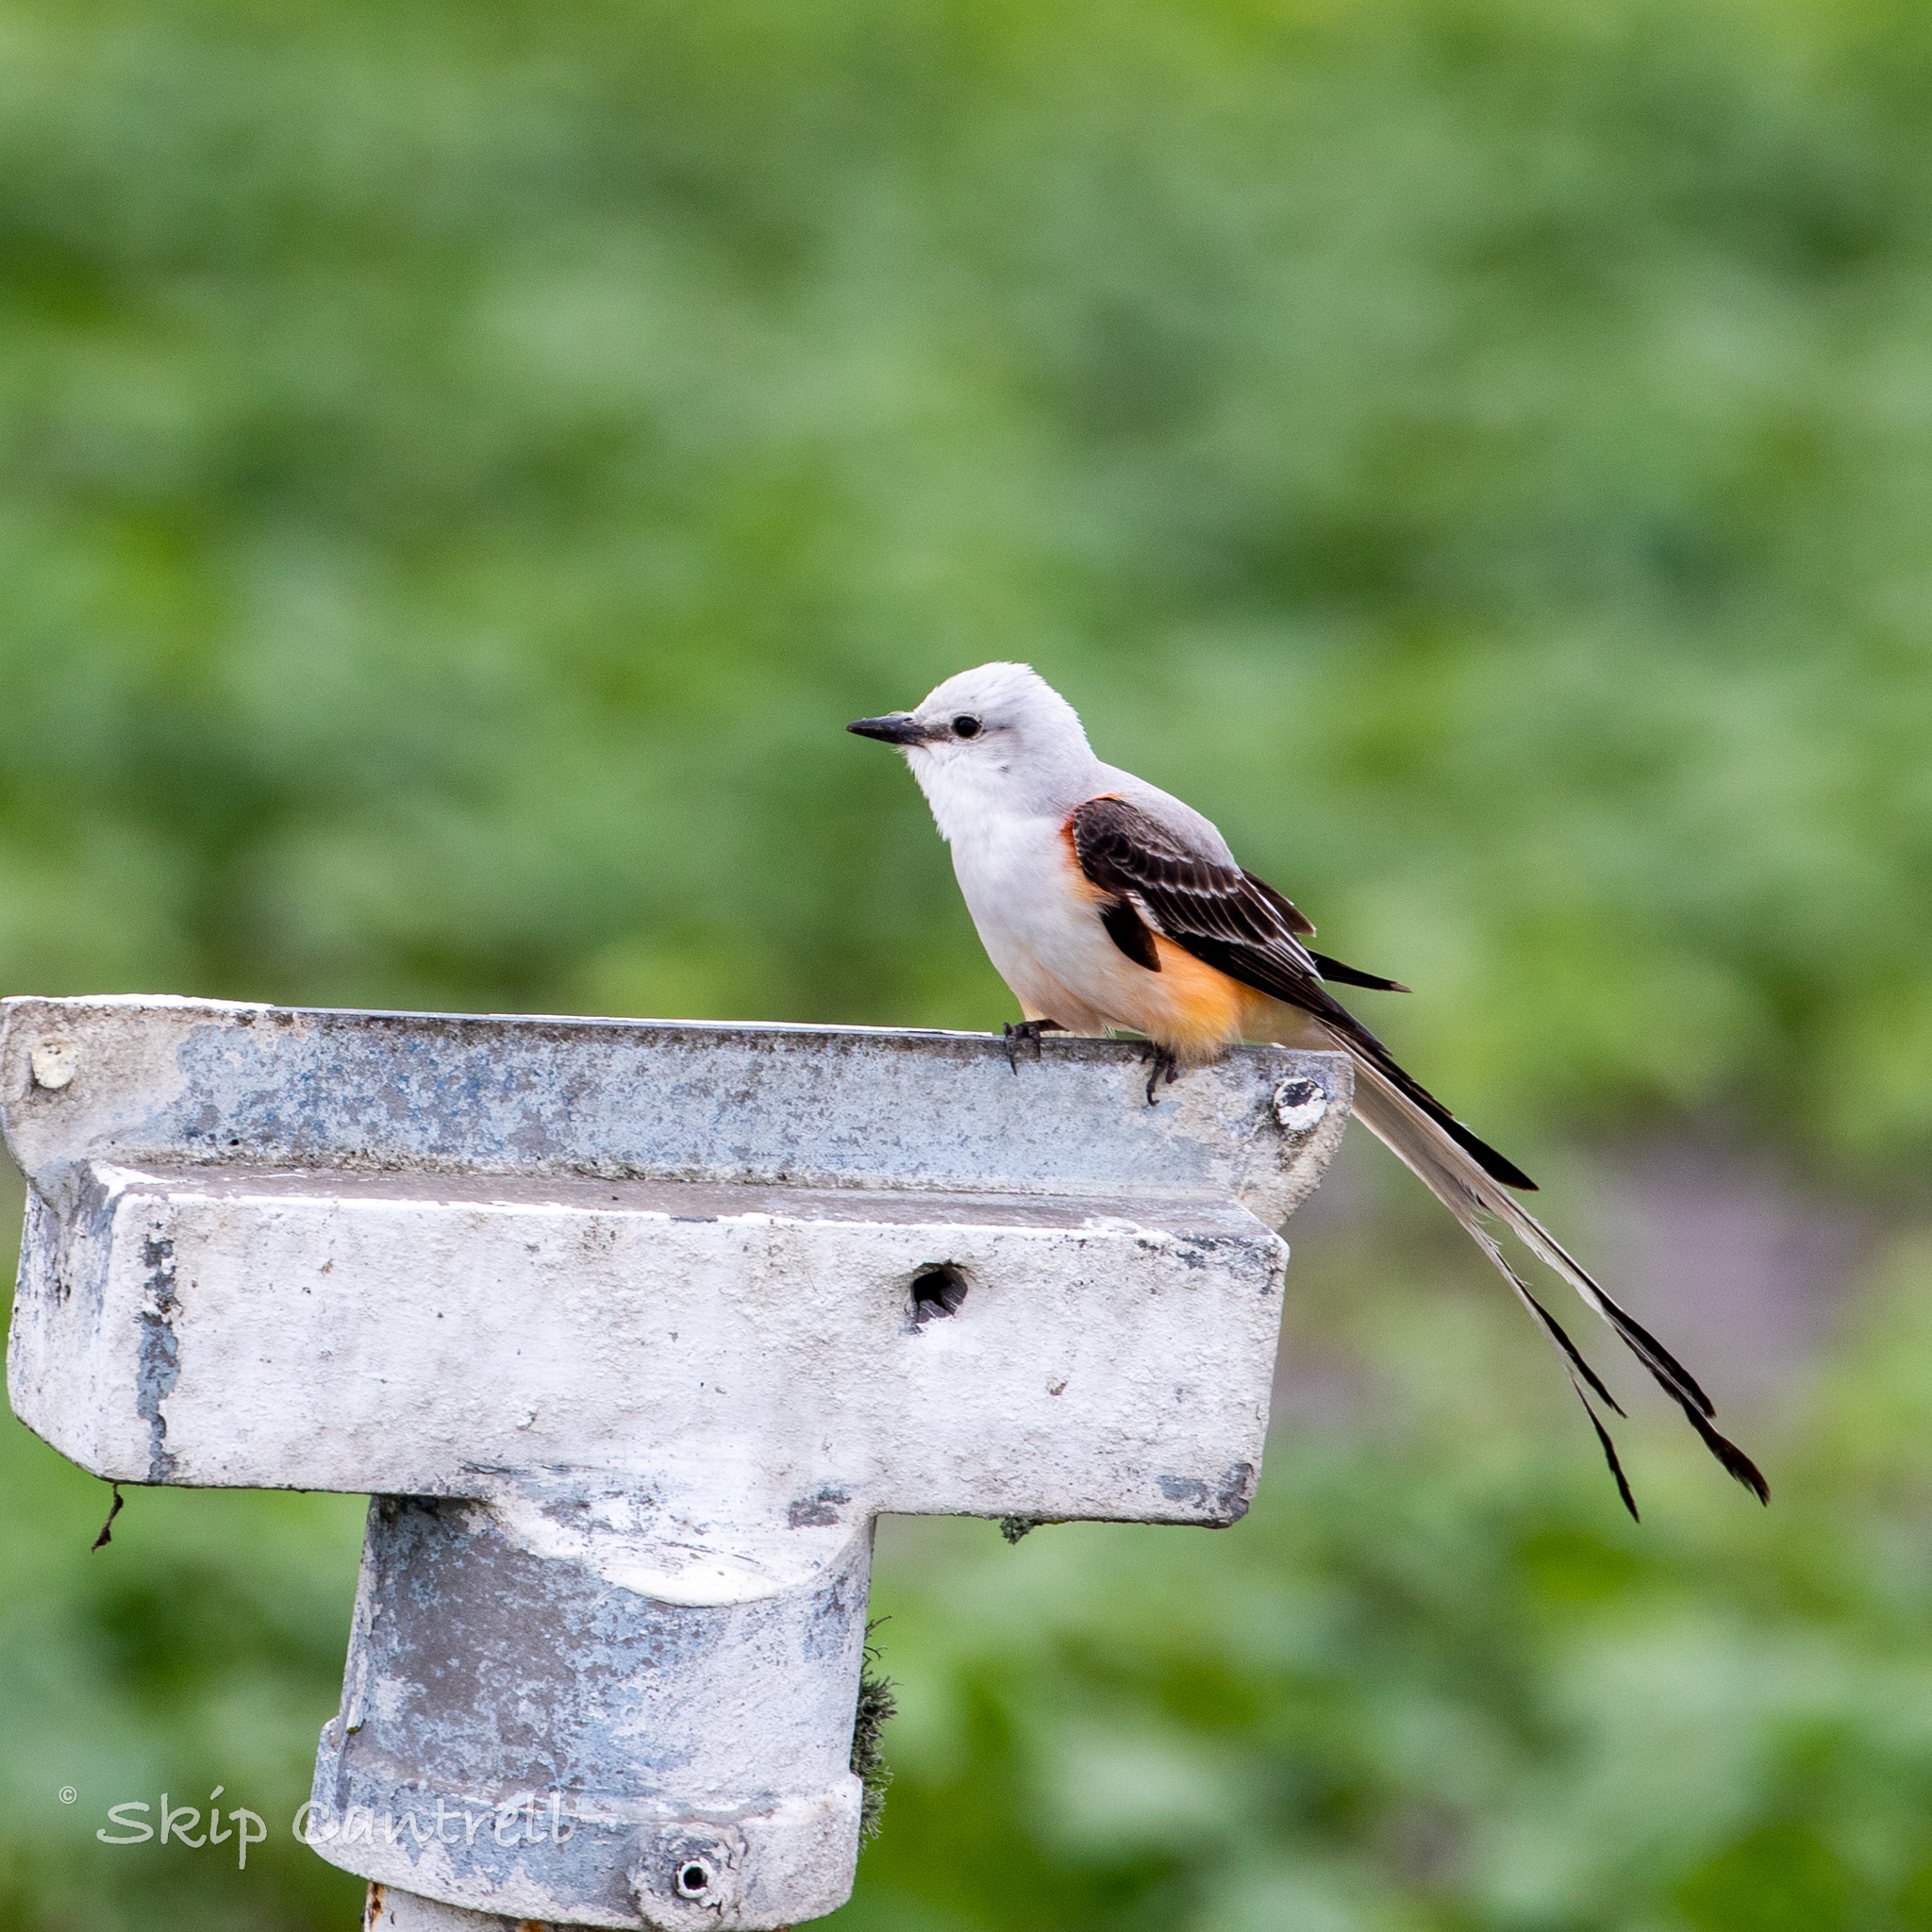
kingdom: Animalia
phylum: Chordata
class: Aves
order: Passeriformes
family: Tyrannidae
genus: Tyrannus
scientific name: Tyrannus forficatus
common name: Scissor-tailed flycatcher
